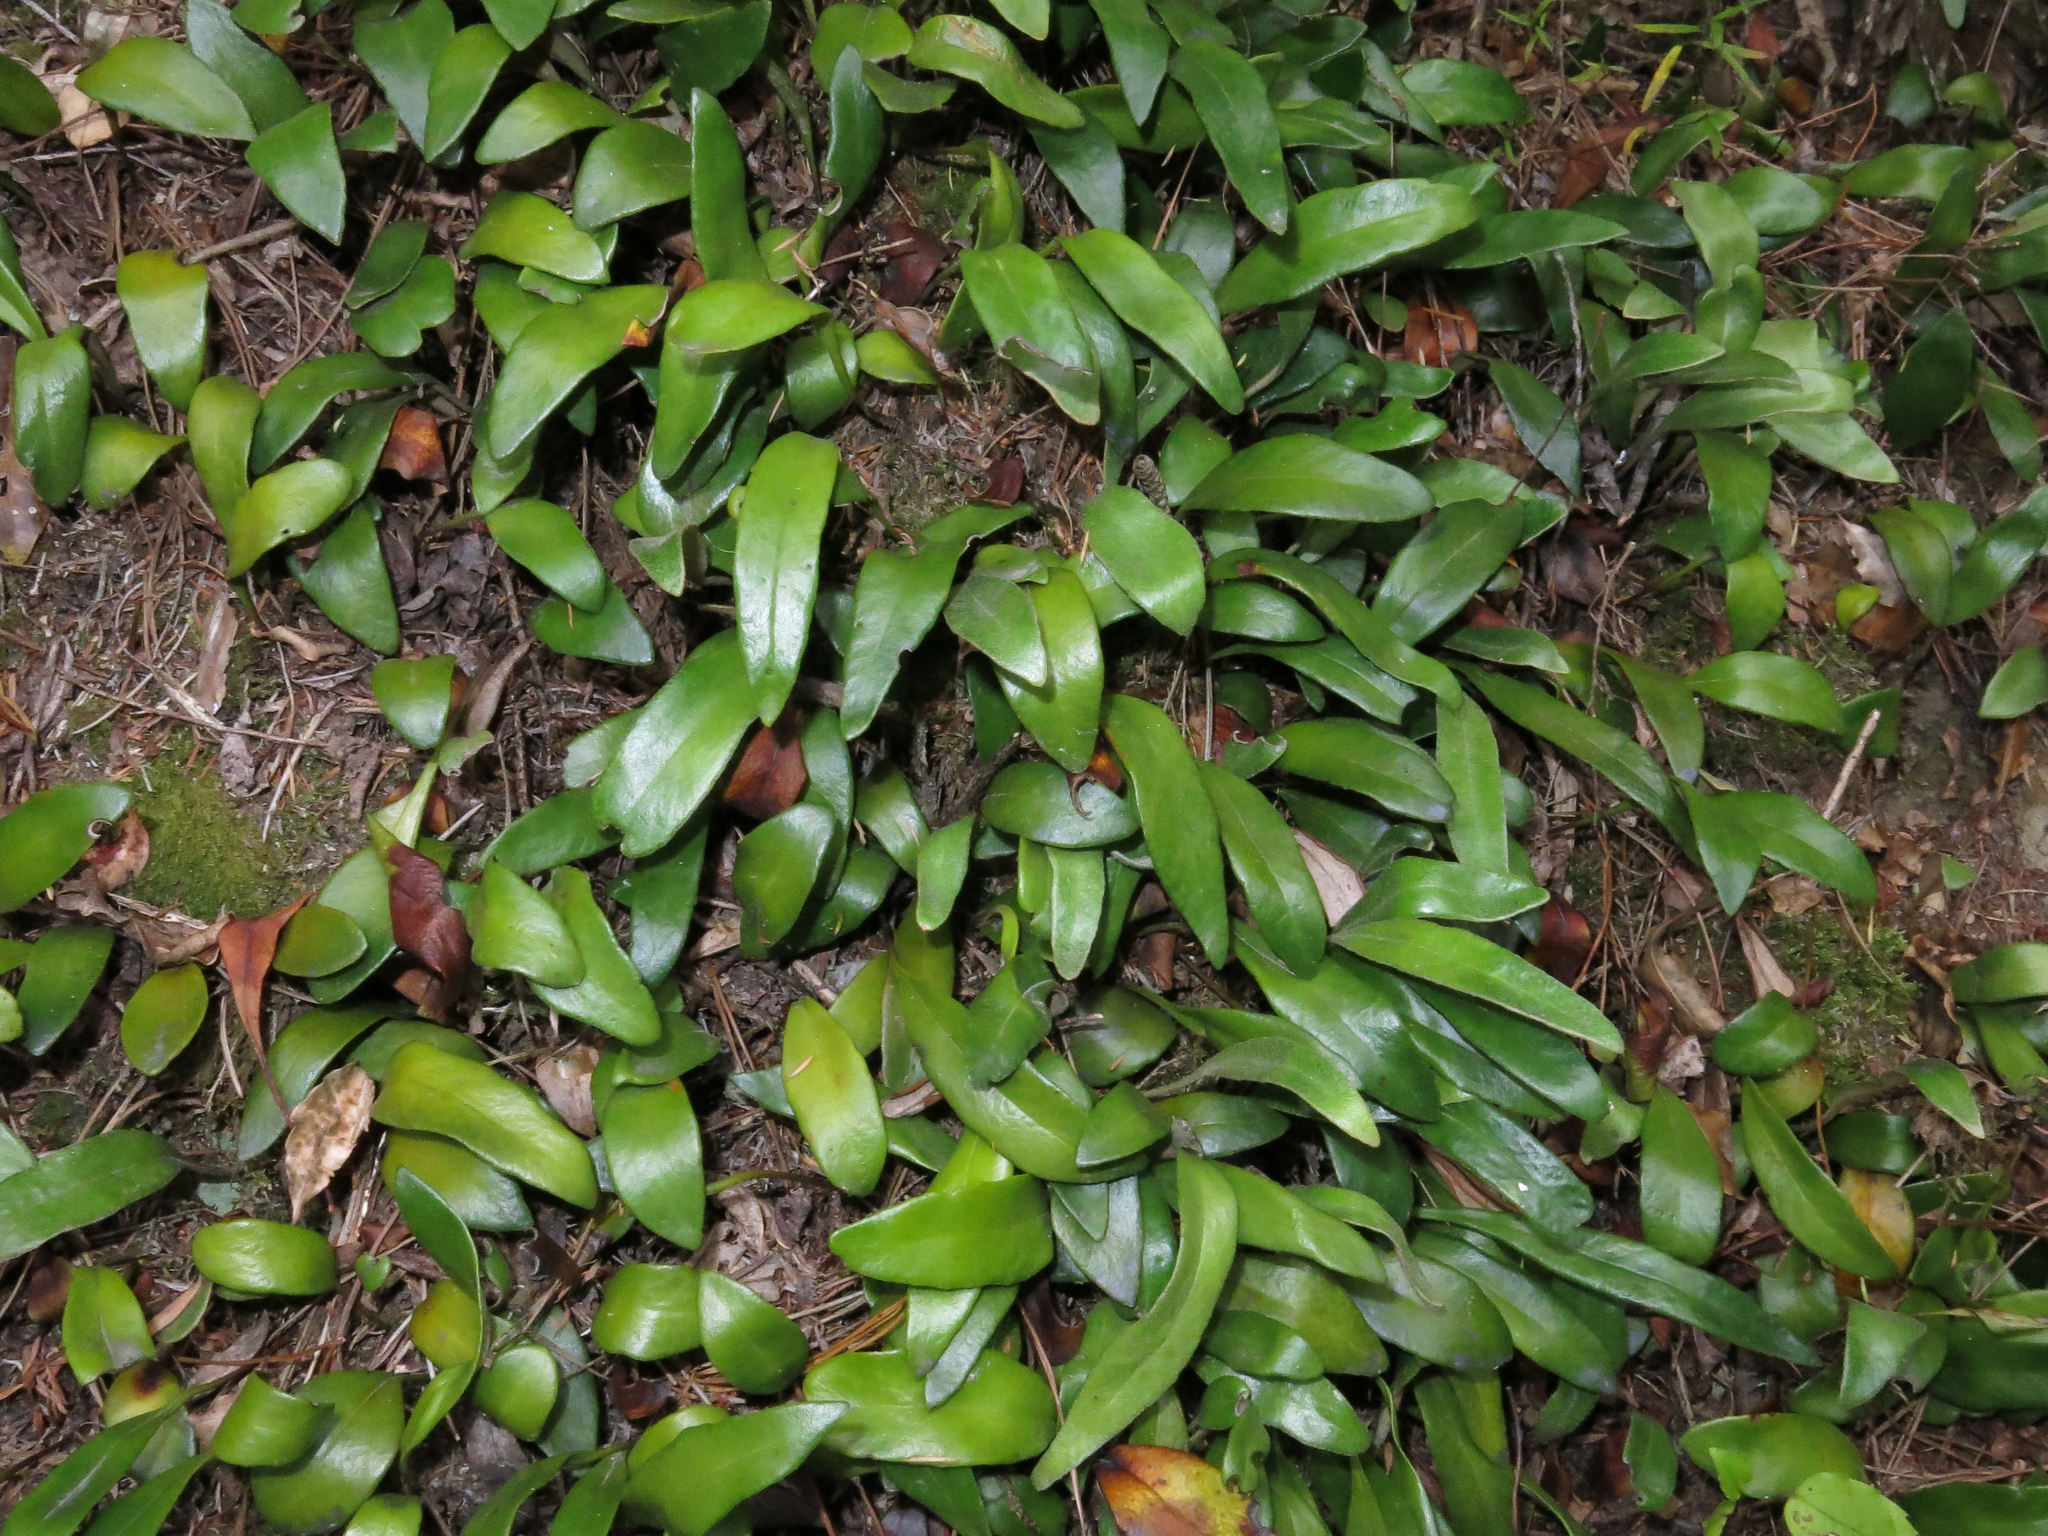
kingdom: Plantae
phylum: Tracheophyta
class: Polypodiopsida
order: Polypodiales
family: Polypodiaceae
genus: Pyrrosia
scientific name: Pyrrosia eleagnifolia
